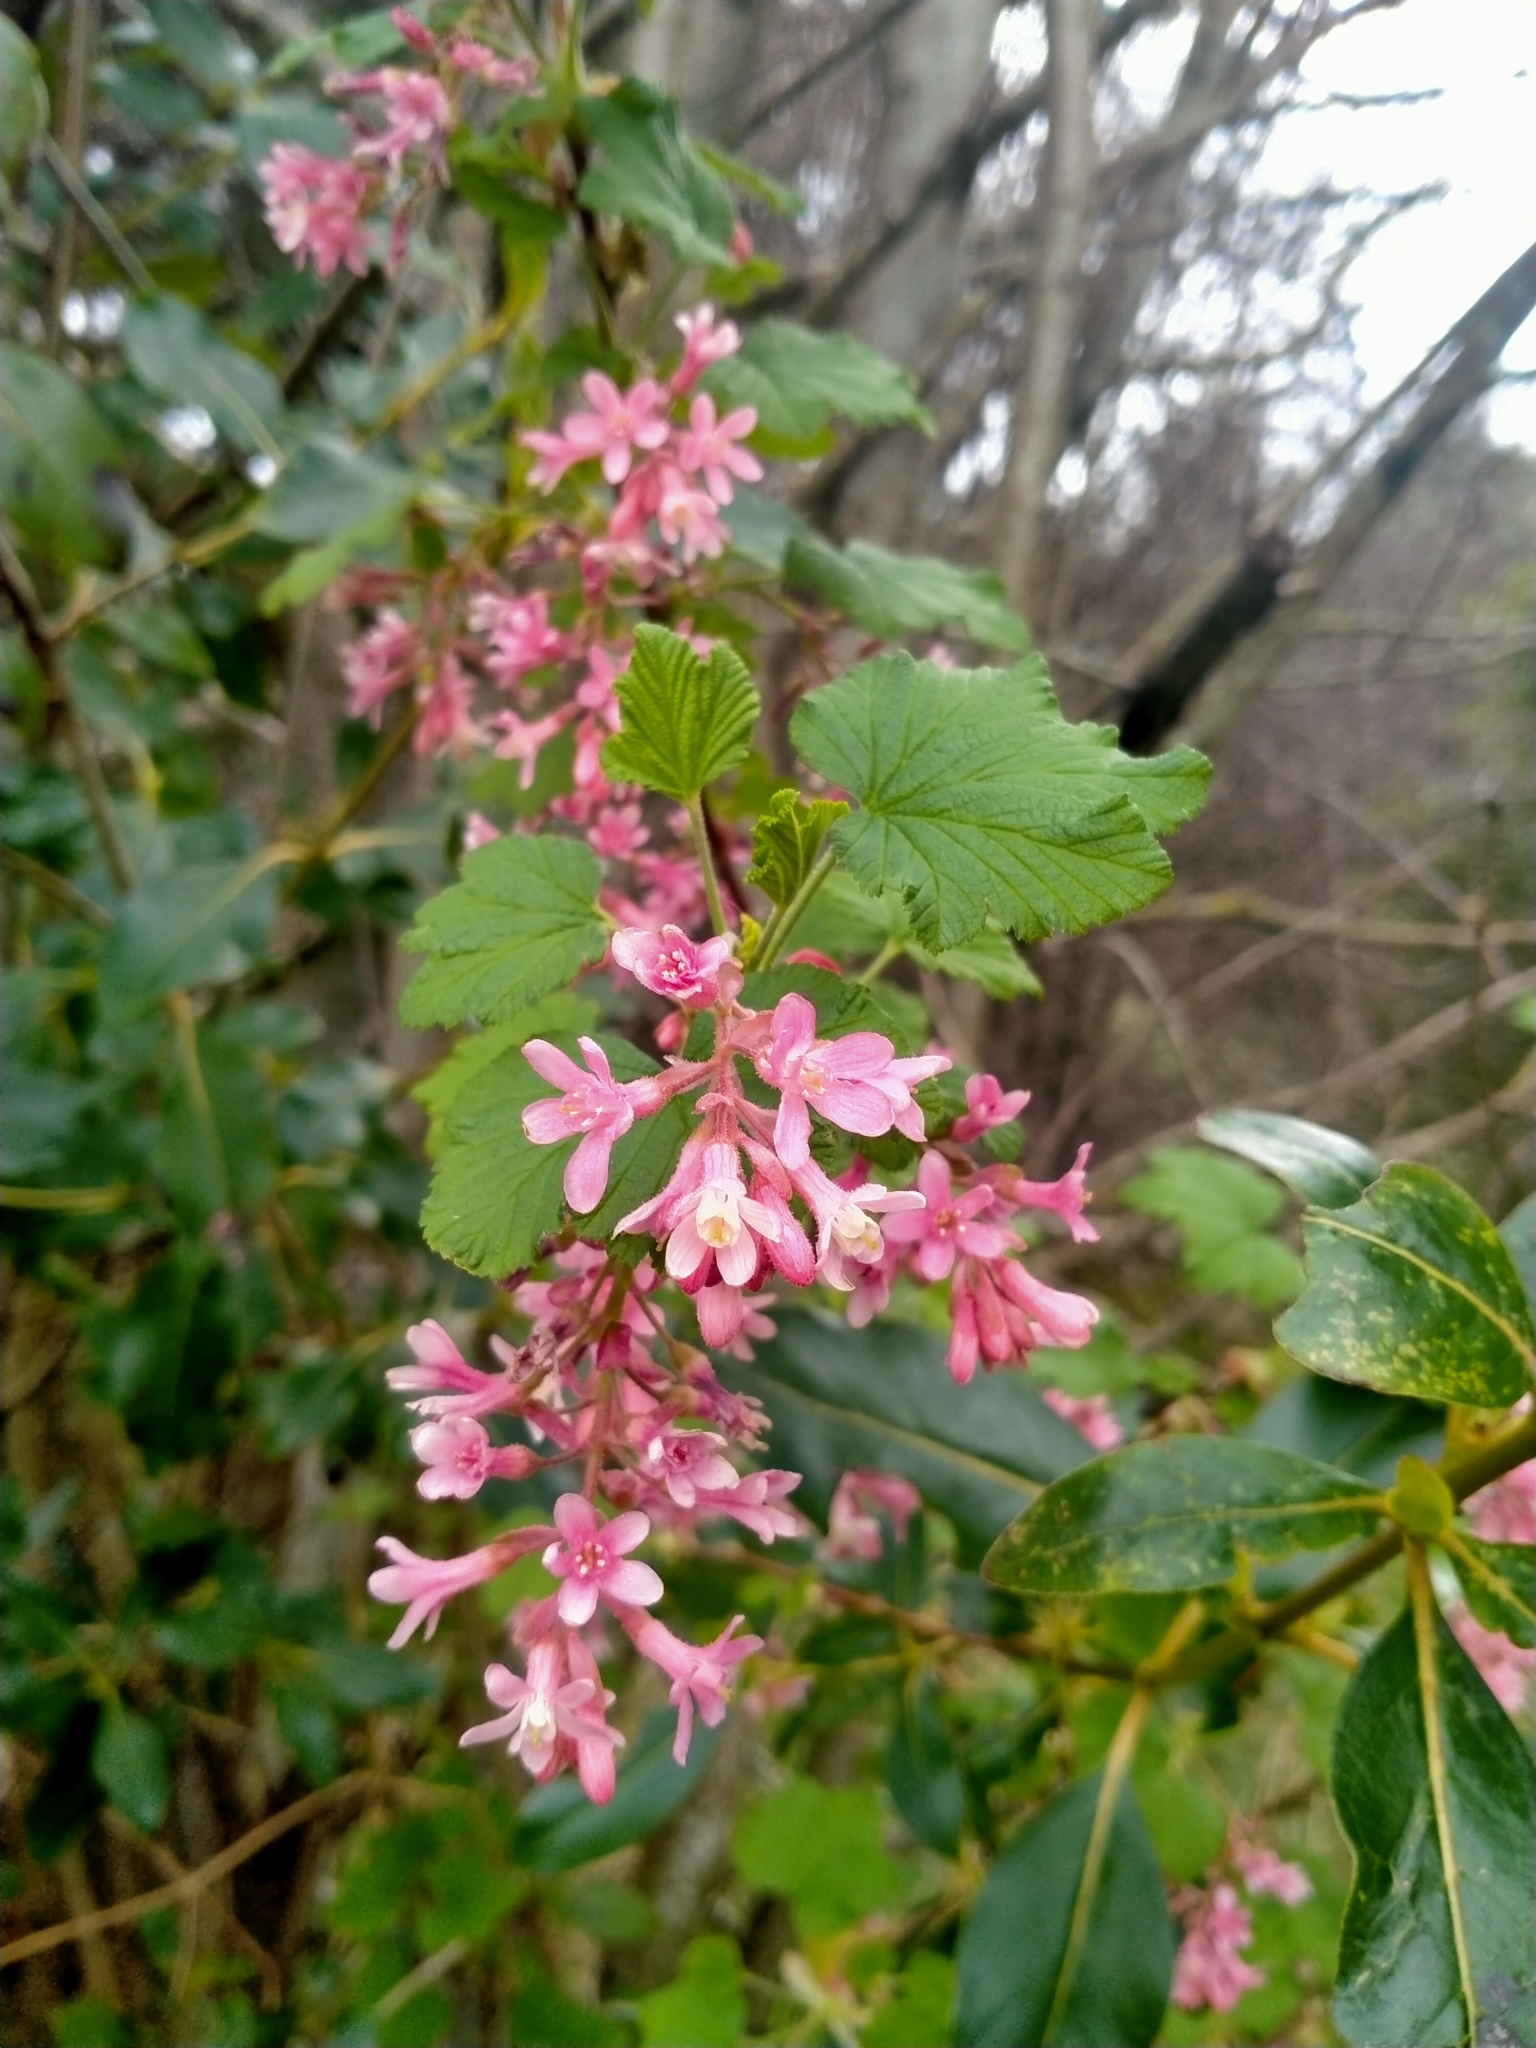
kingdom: Plantae
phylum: Tracheophyta
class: Magnoliopsida
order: Saxifragales
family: Grossulariaceae
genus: Ribes
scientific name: Ribes sanguineum
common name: Flowering currant
